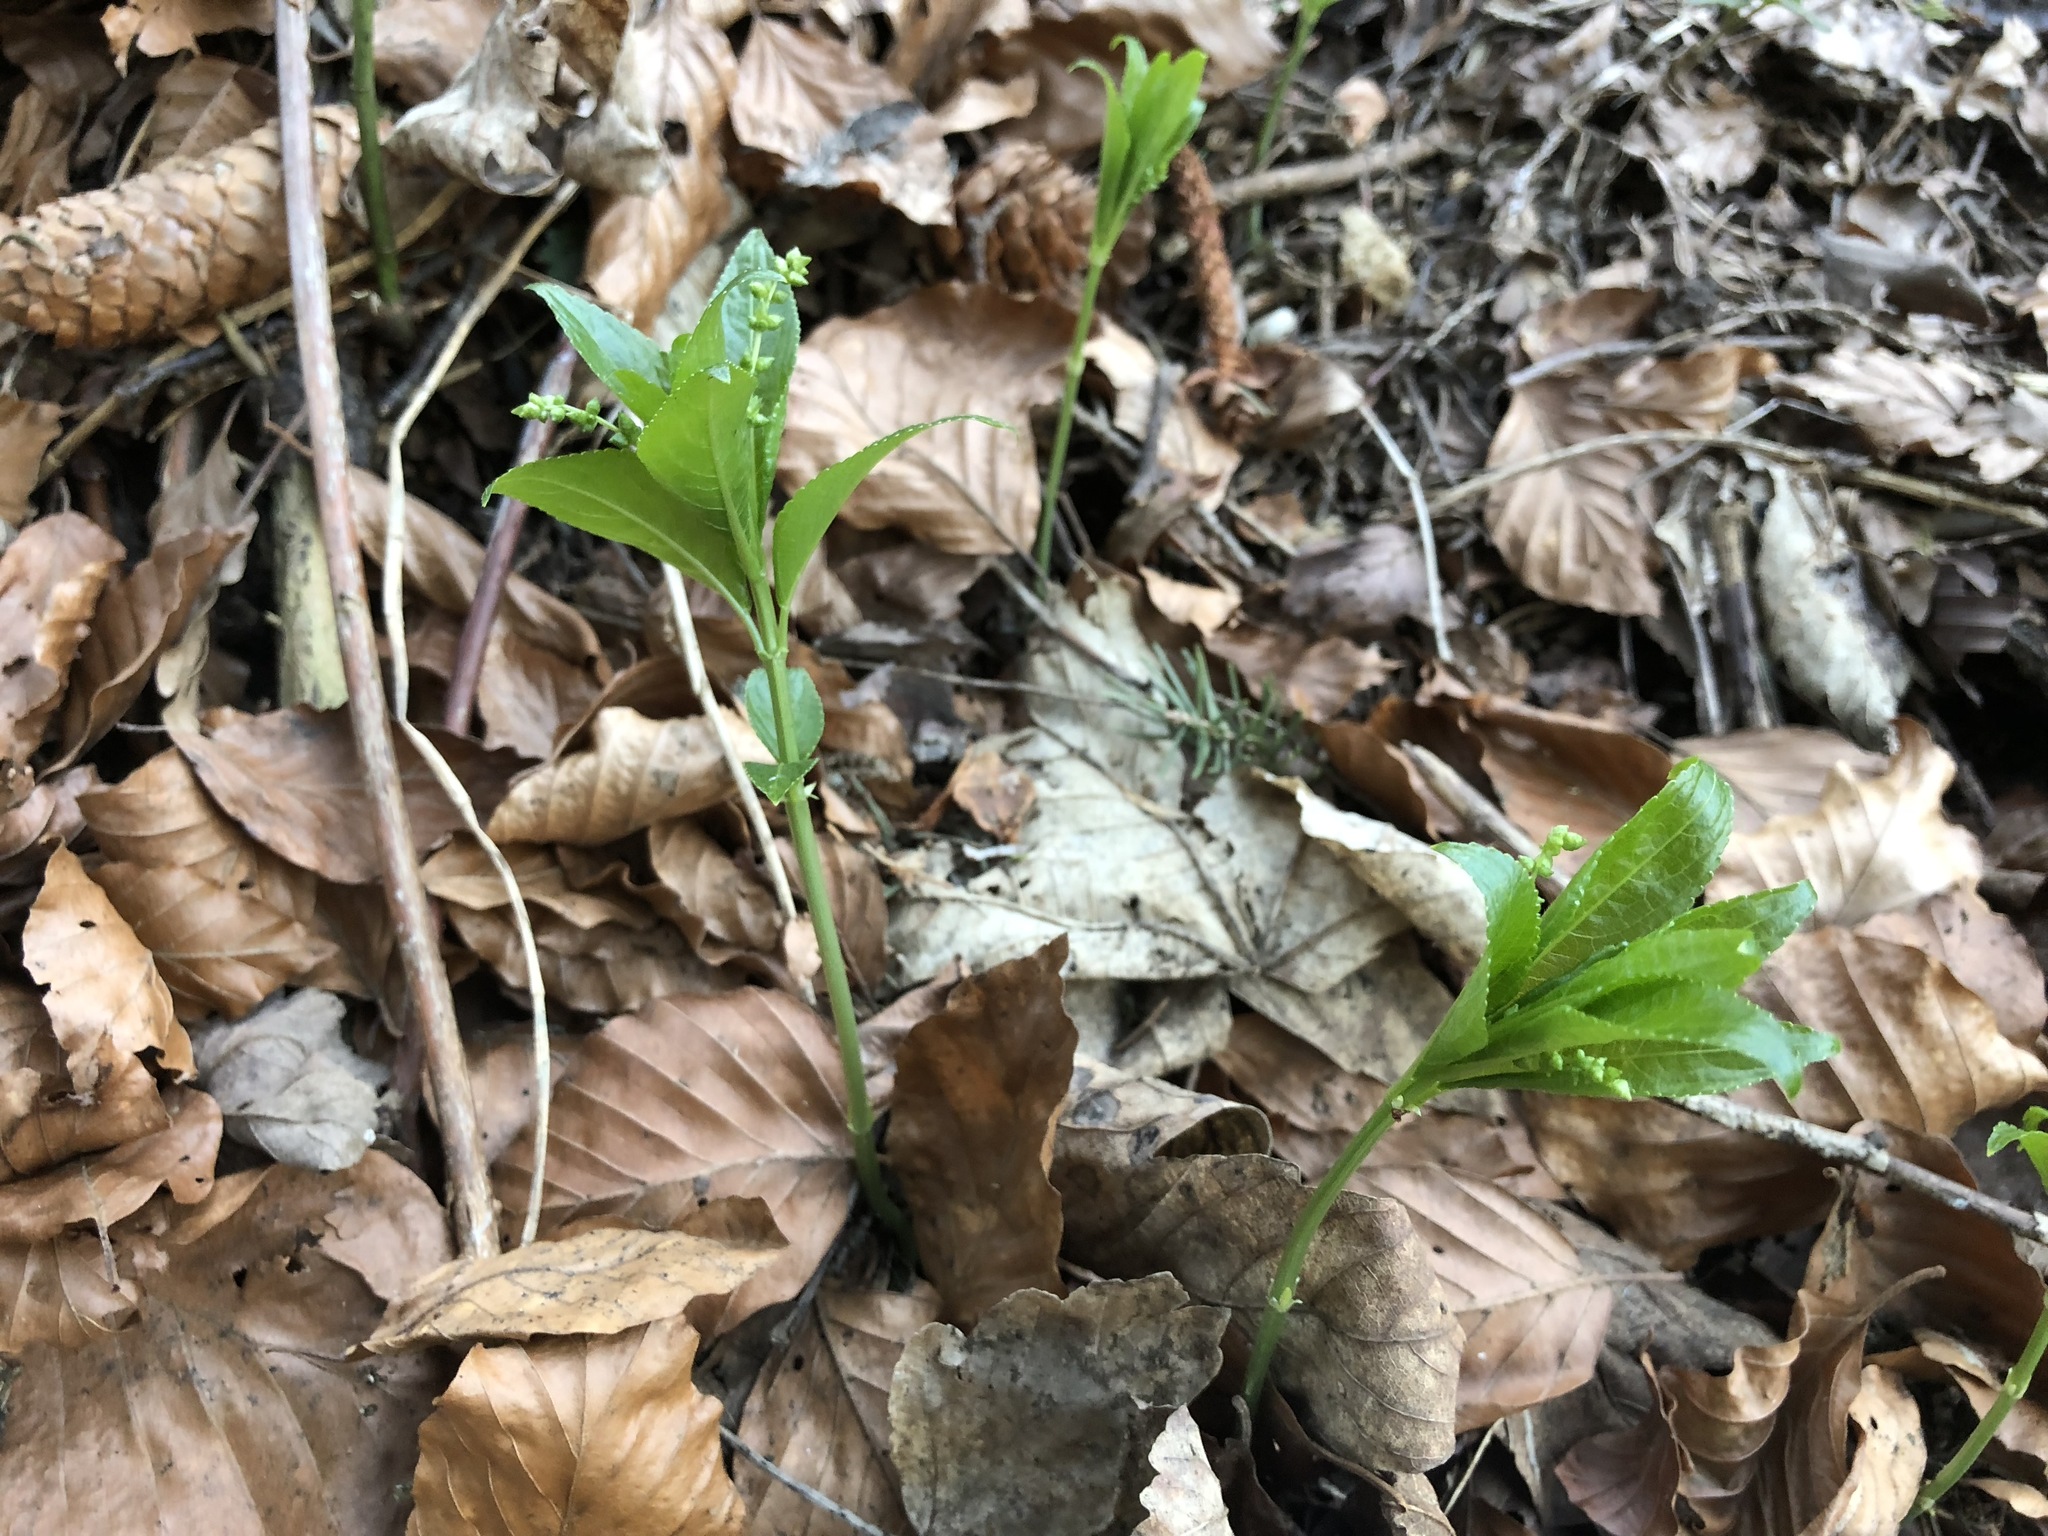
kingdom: Plantae
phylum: Tracheophyta
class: Magnoliopsida
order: Malpighiales
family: Euphorbiaceae
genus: Mercurialis
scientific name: Mercurialis perennis
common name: Dog mercury
